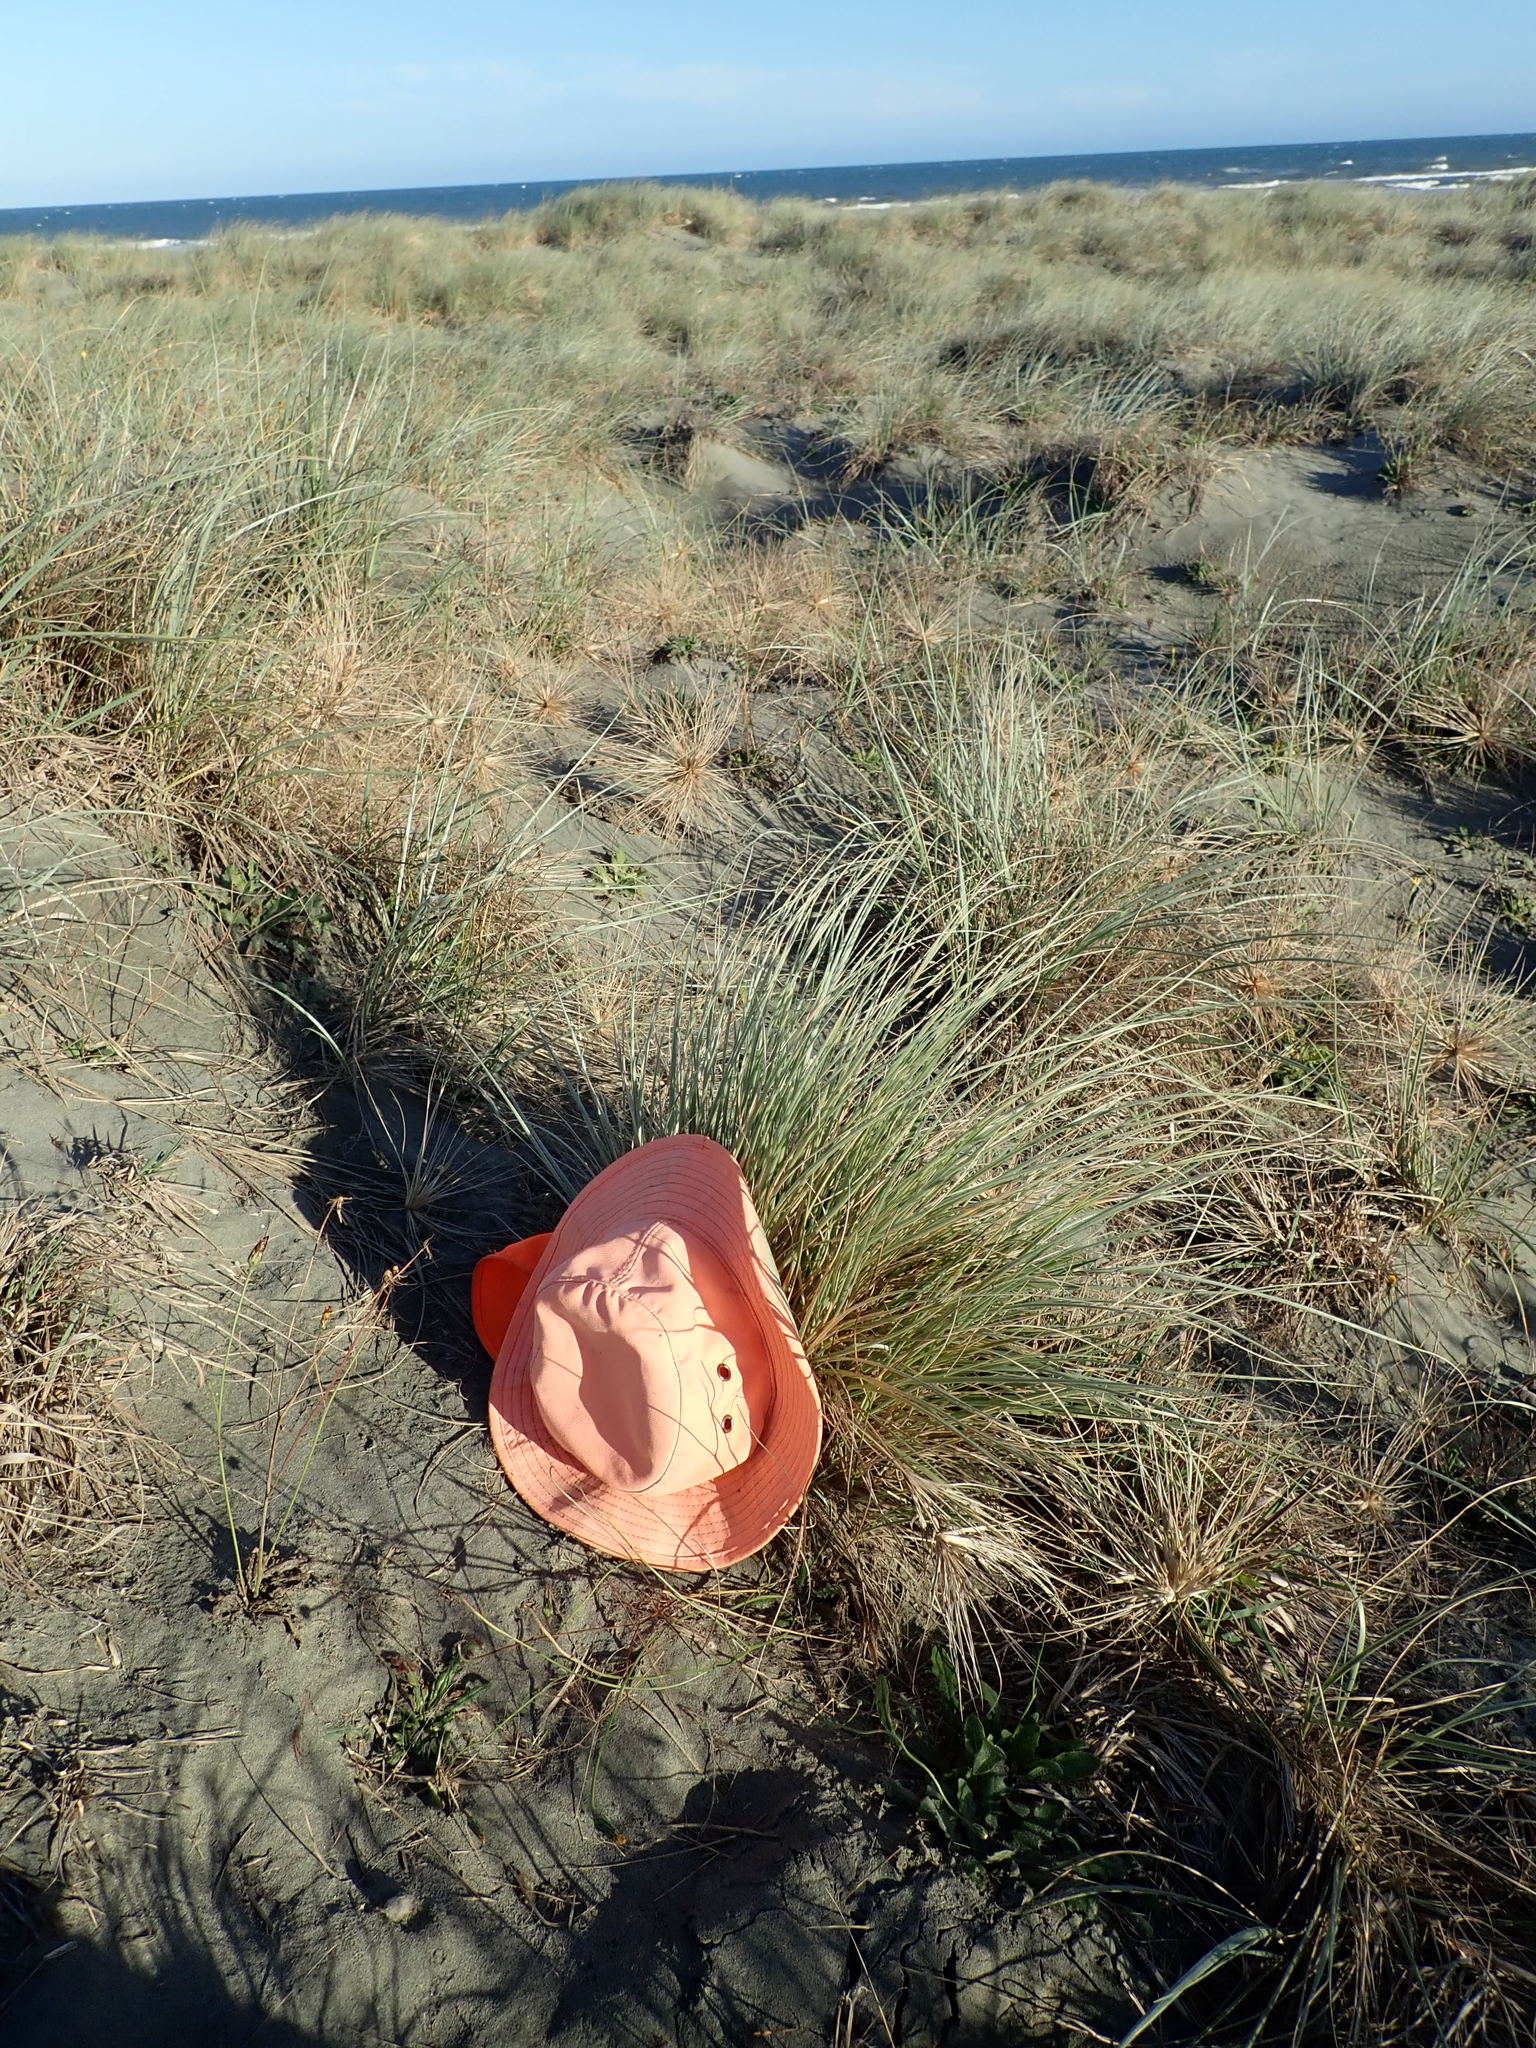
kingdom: Animalia
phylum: Arthropoda
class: Insecta
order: Orthoptera
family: Gryllidae
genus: Teleogryllus
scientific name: Teleogryllus commodus
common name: Black field cricket
